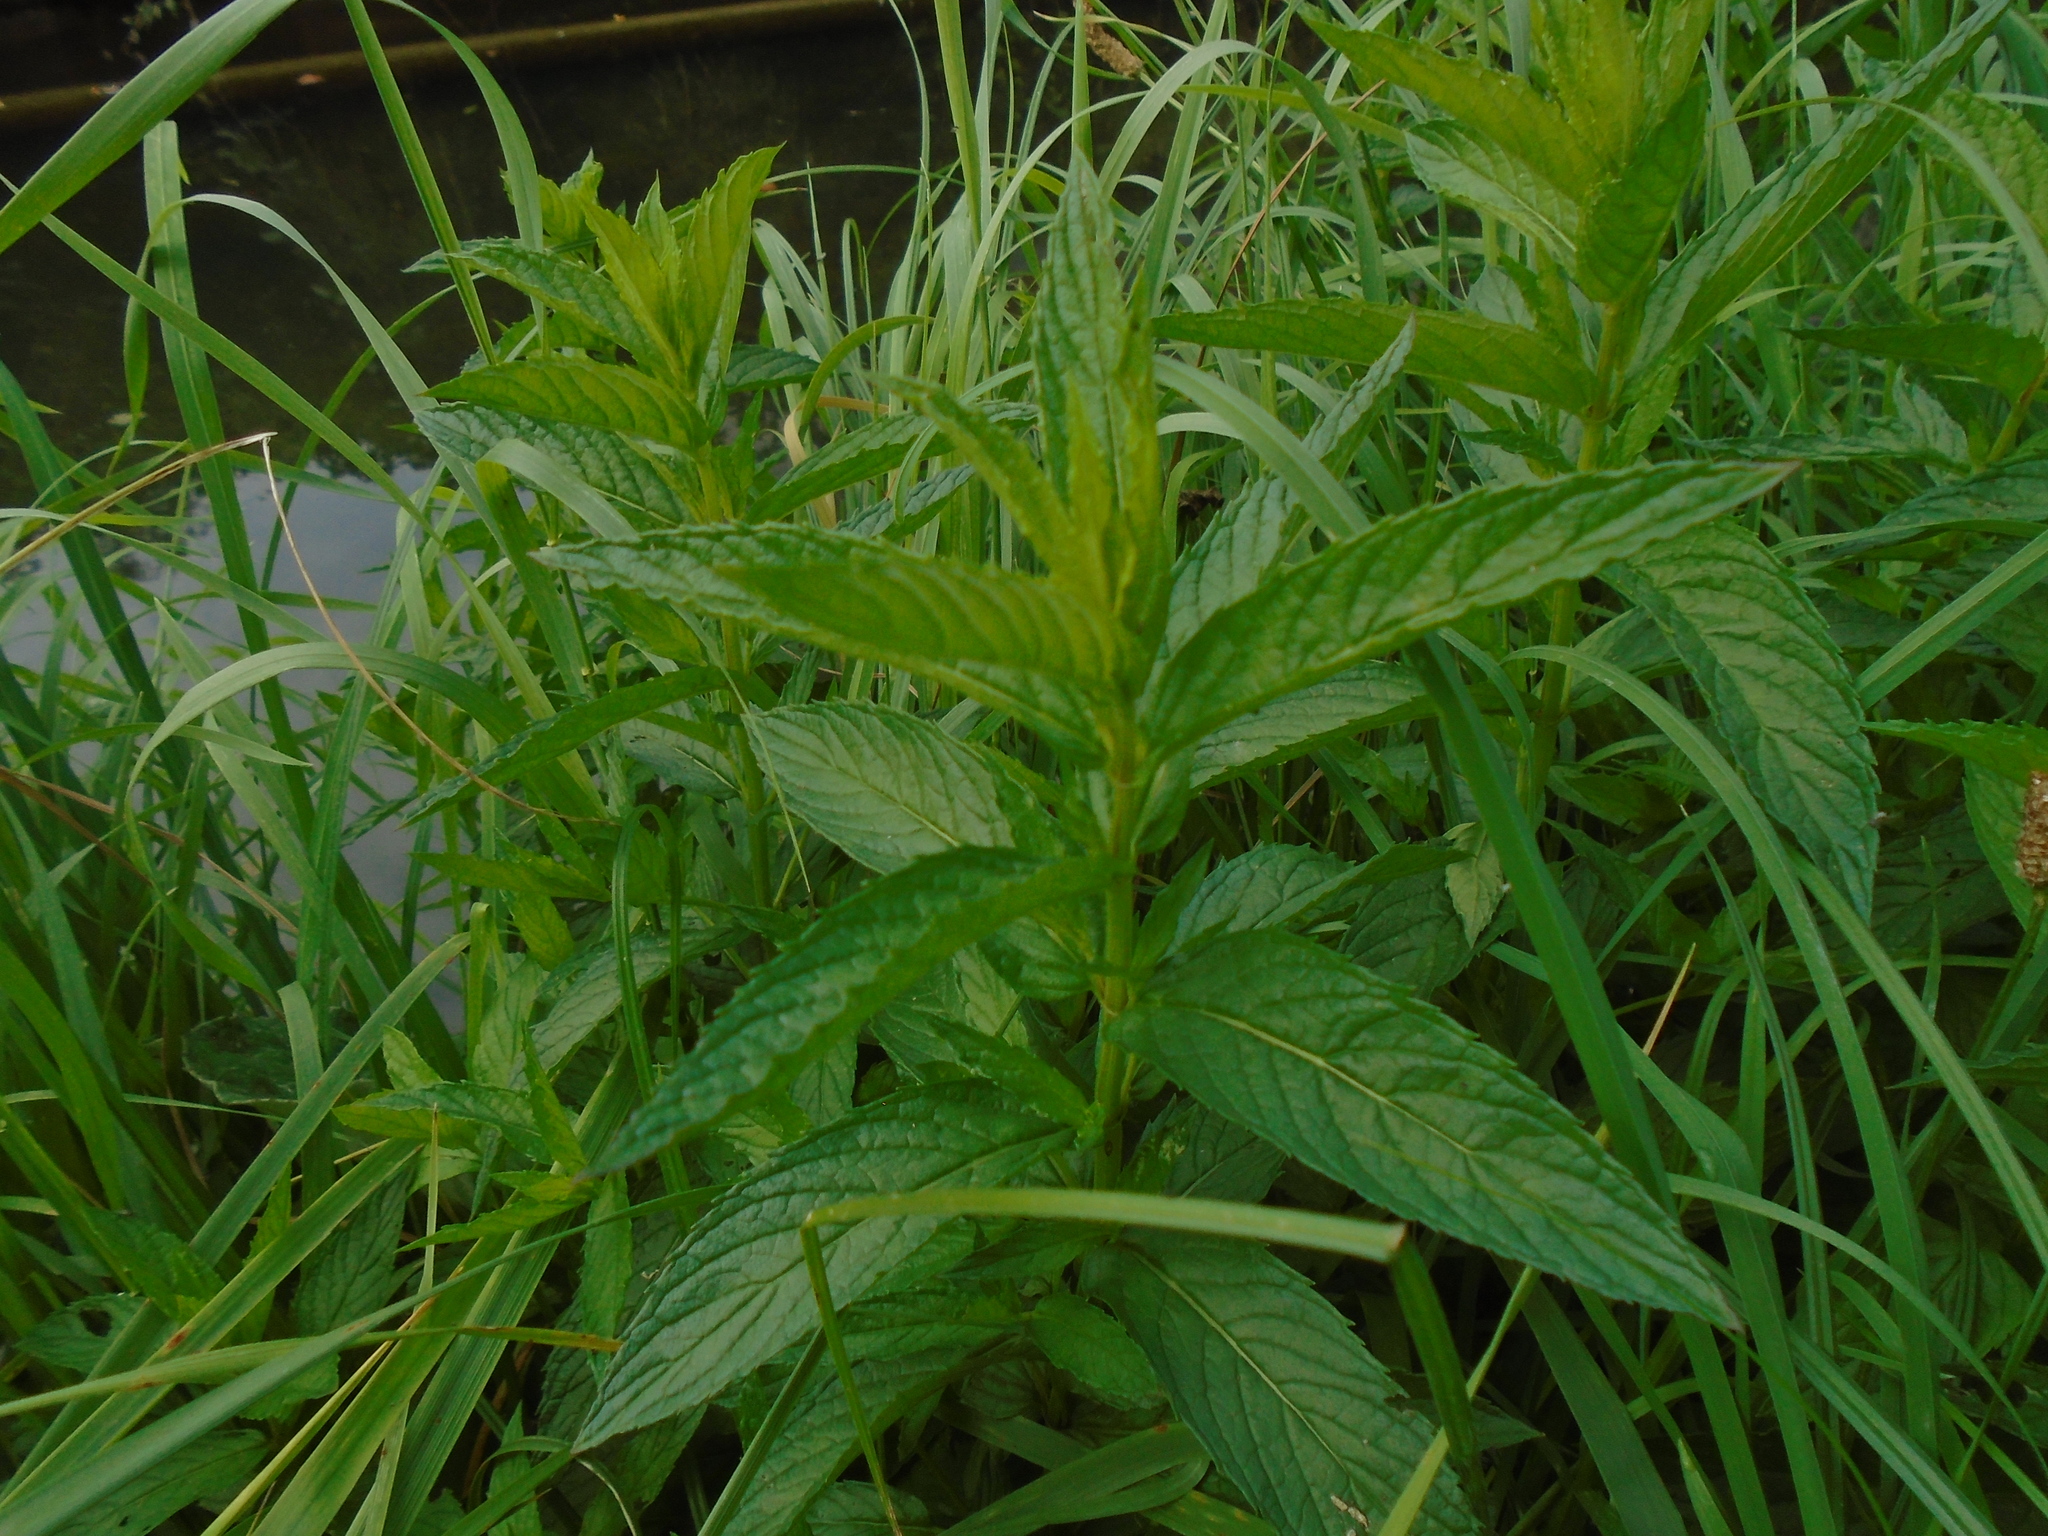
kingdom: Plantae
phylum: Tracheophyta
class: Magnoliopsida
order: Lamiales
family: Lamiaceae
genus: Mentha
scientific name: Mentha spicata
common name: Spearmint
